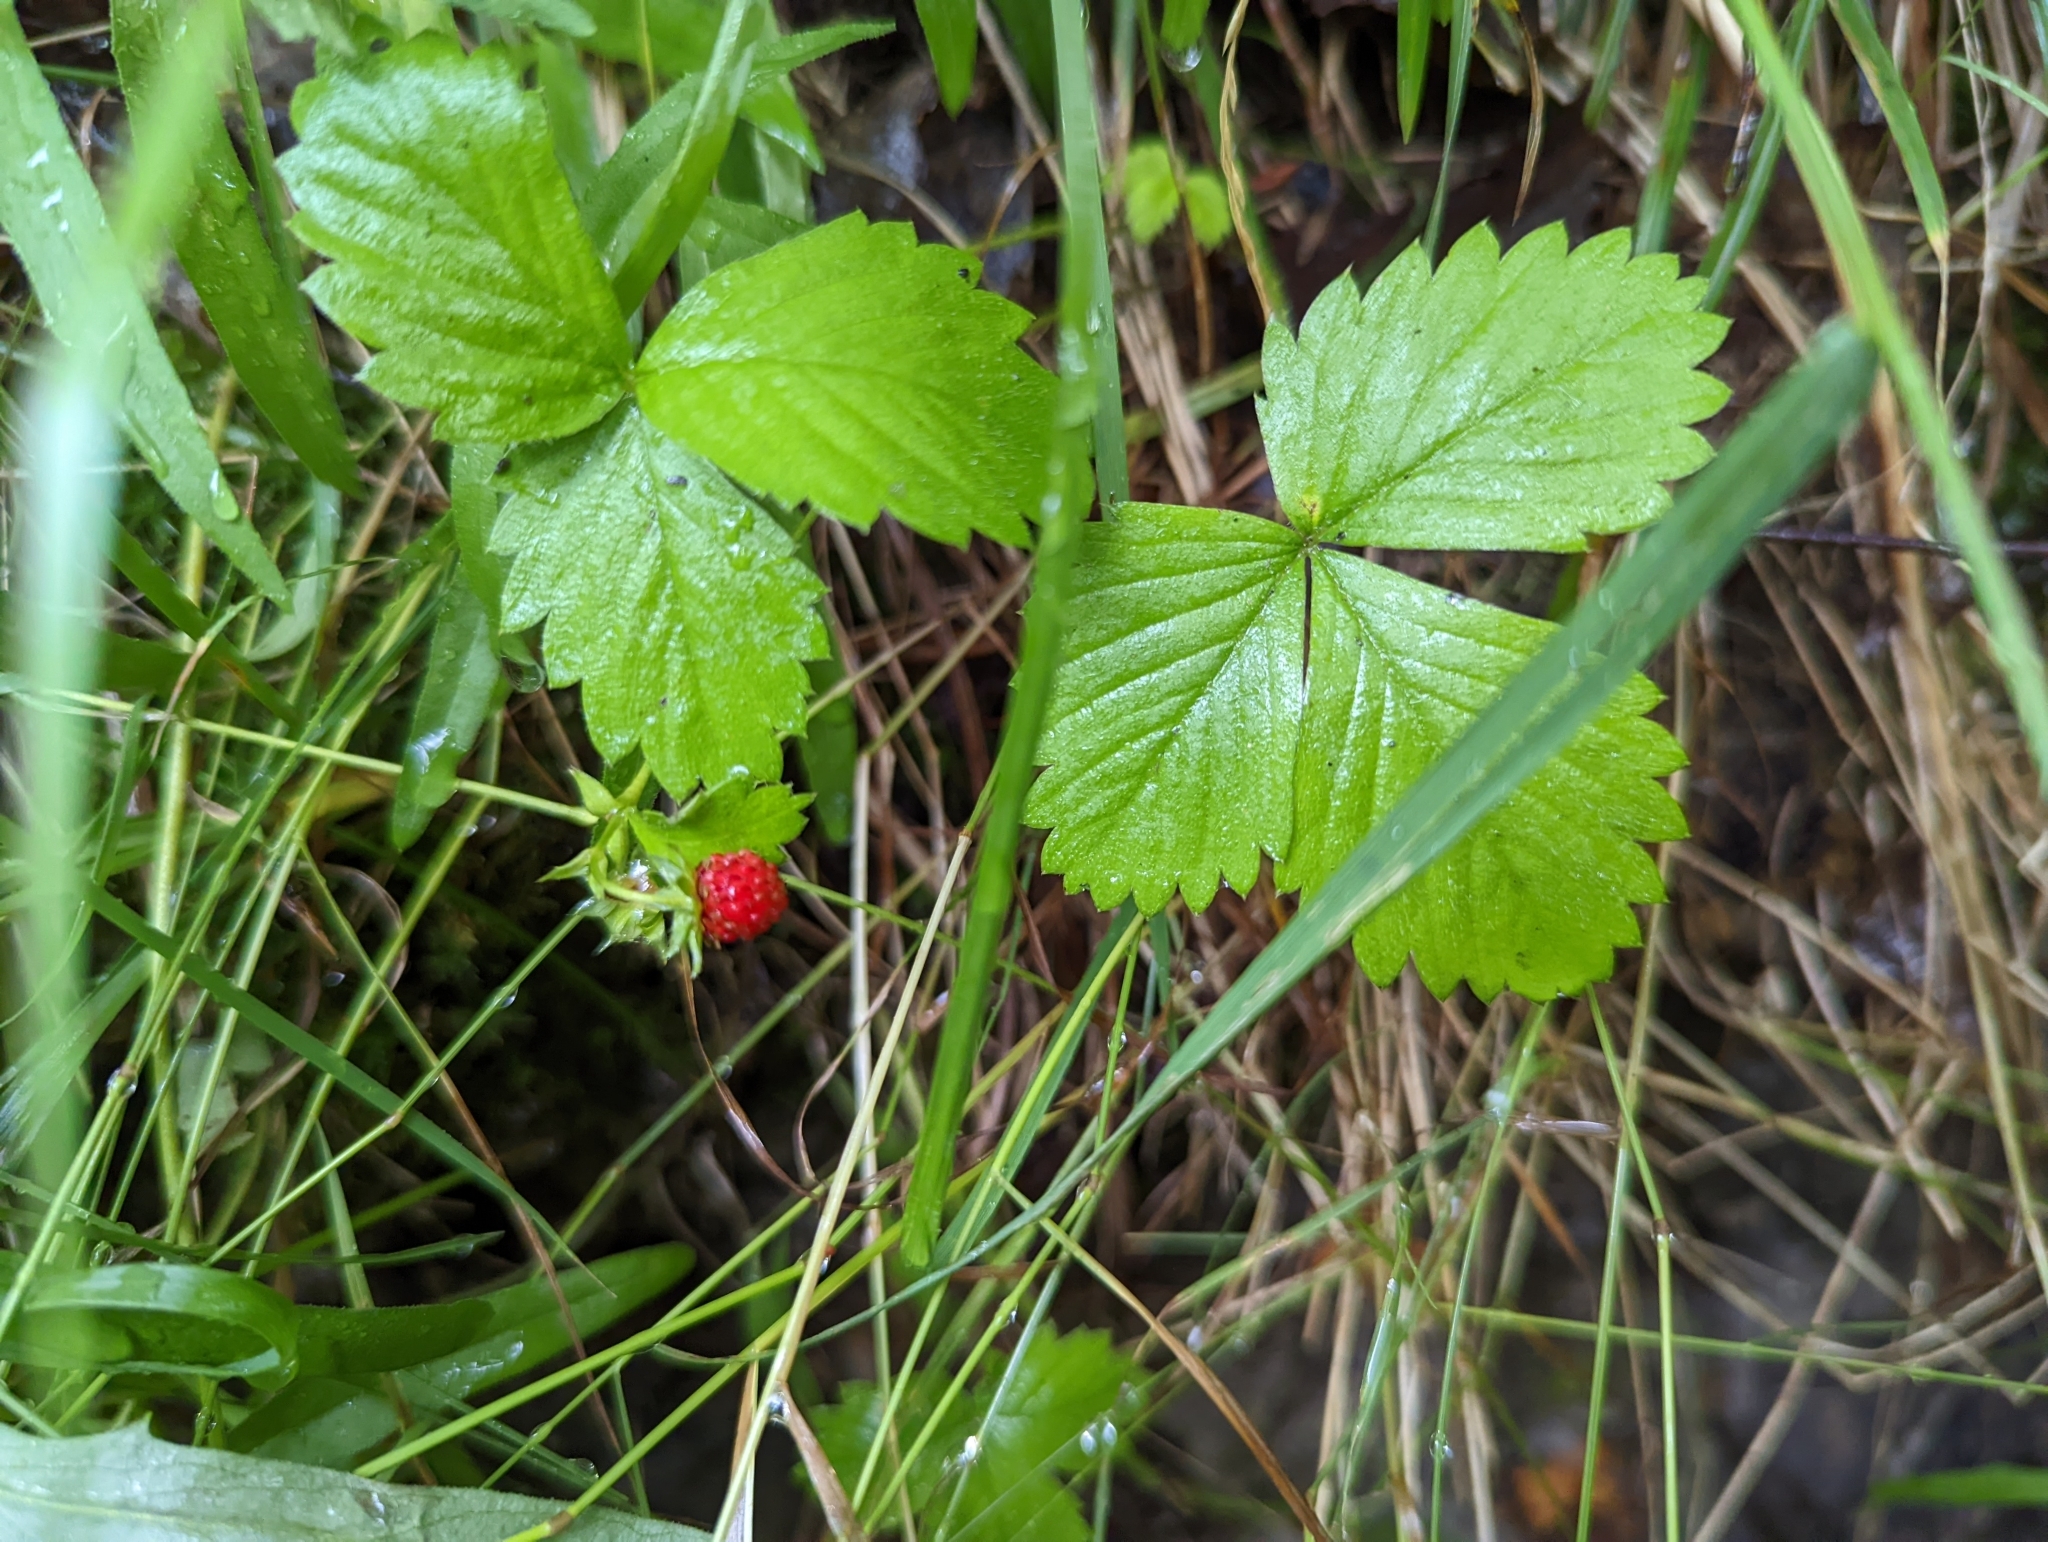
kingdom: Plantae
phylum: Tracheophyta
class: Magnoliopsida
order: Rosales
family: Rosaceae
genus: Fragaria
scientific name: Fragaria vesca
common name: Wild strawberry
